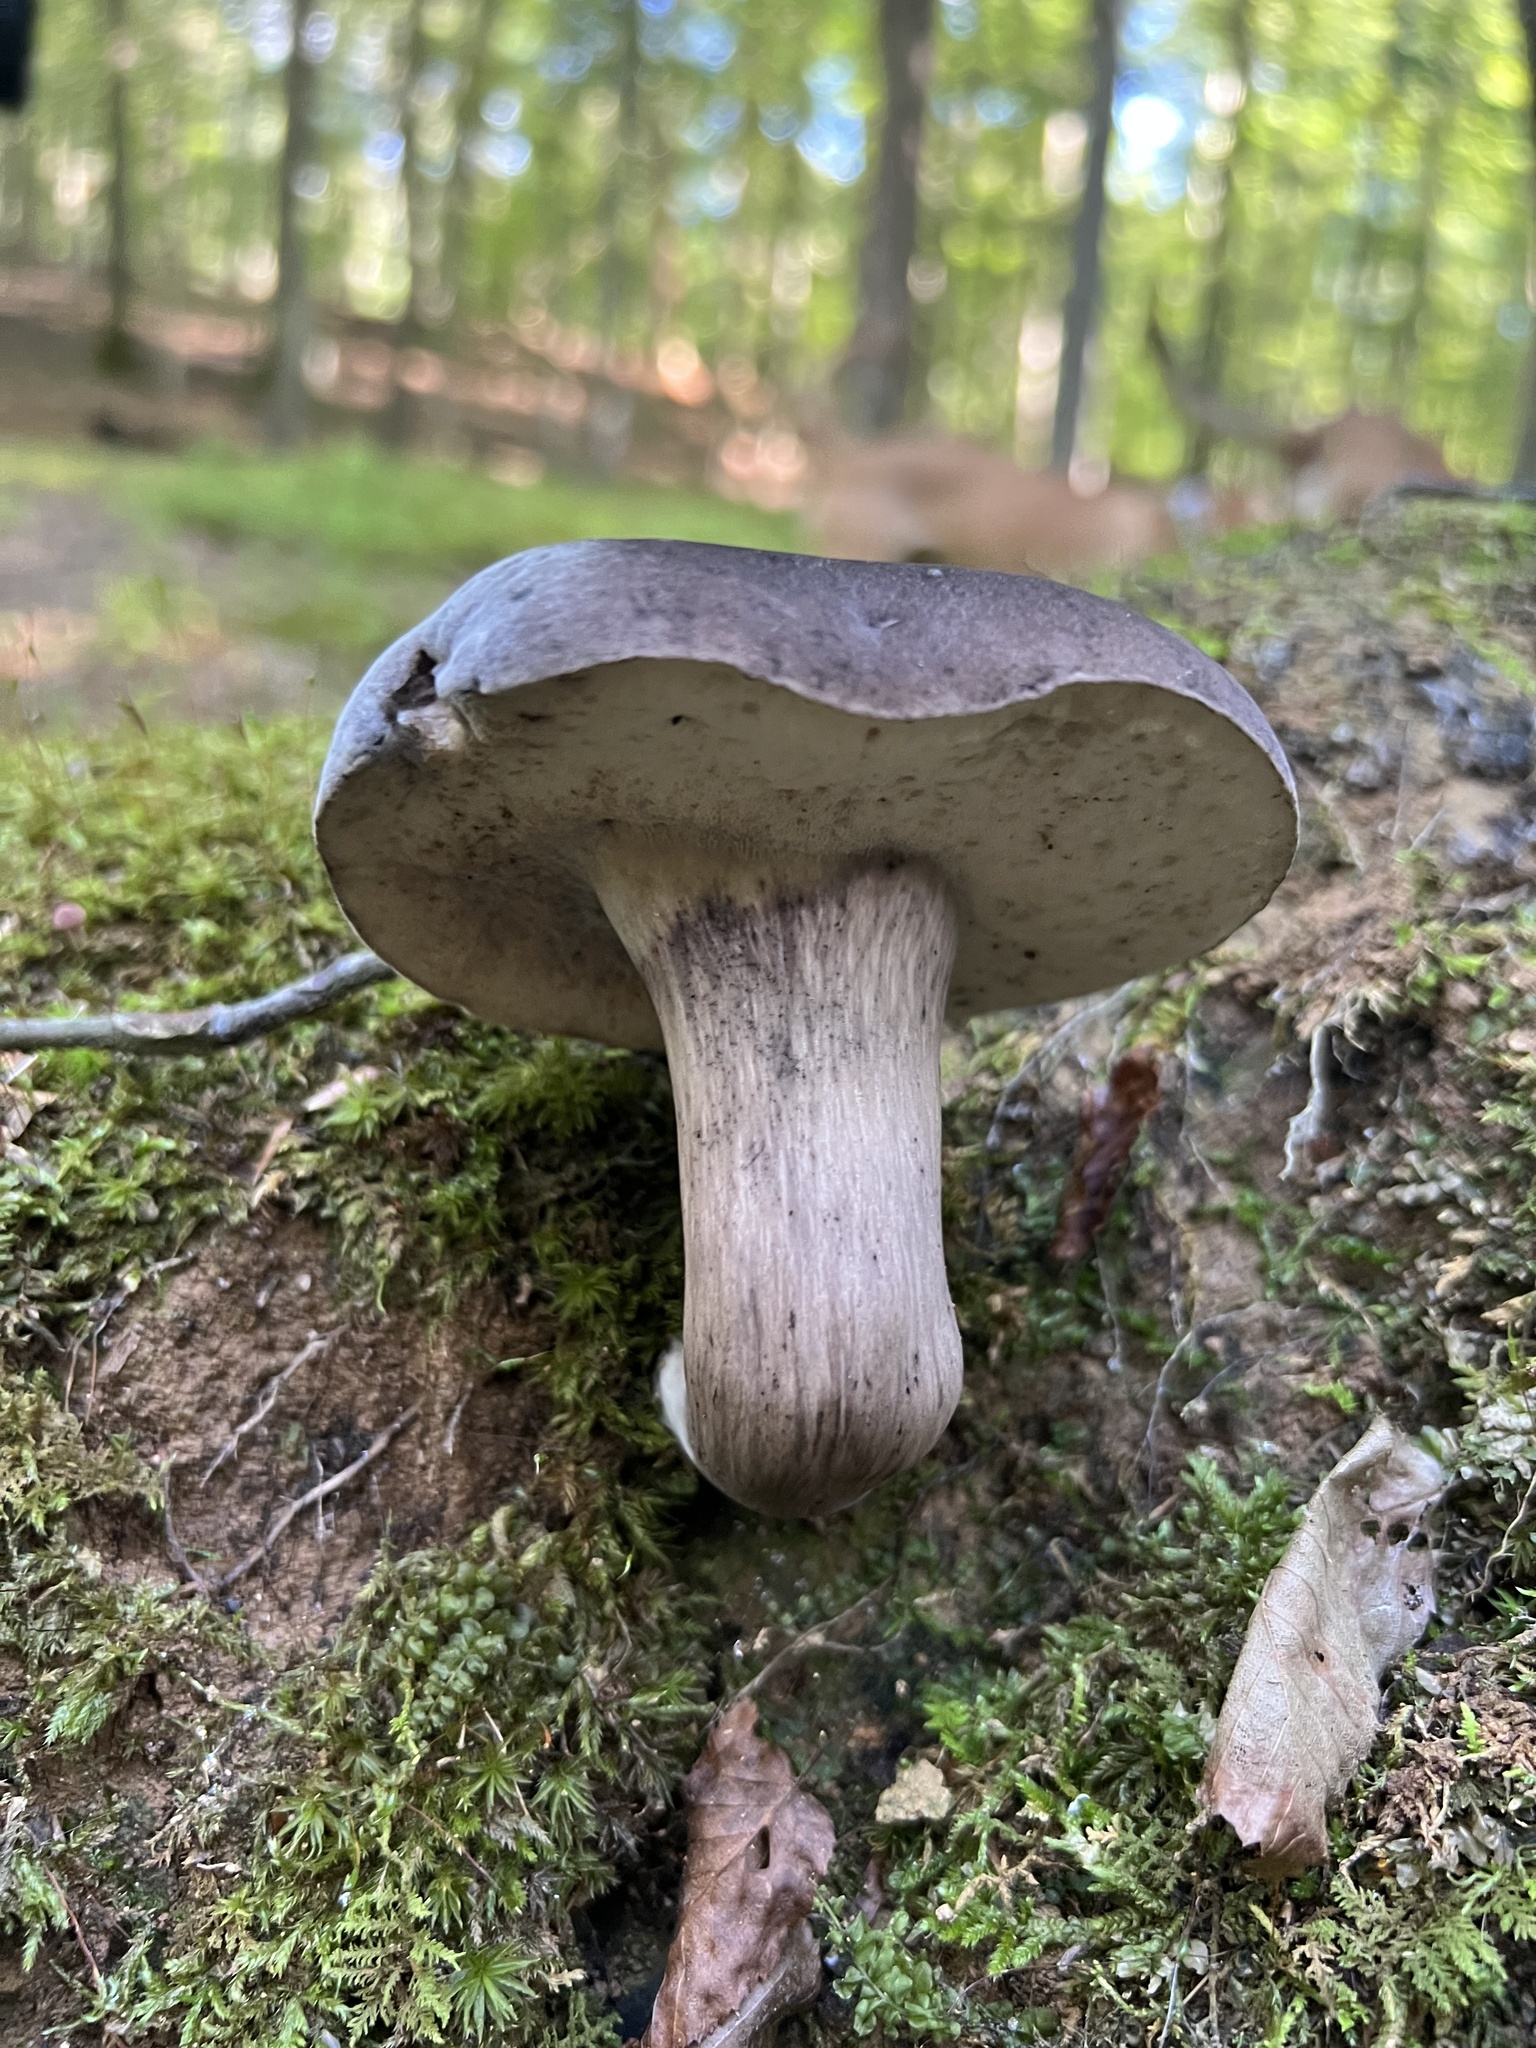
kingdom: Fungi
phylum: Basidiomycota
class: Agaricomycetes
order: Boletales
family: Boletaceae
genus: Tylopilus
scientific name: Tylopilus alboater
